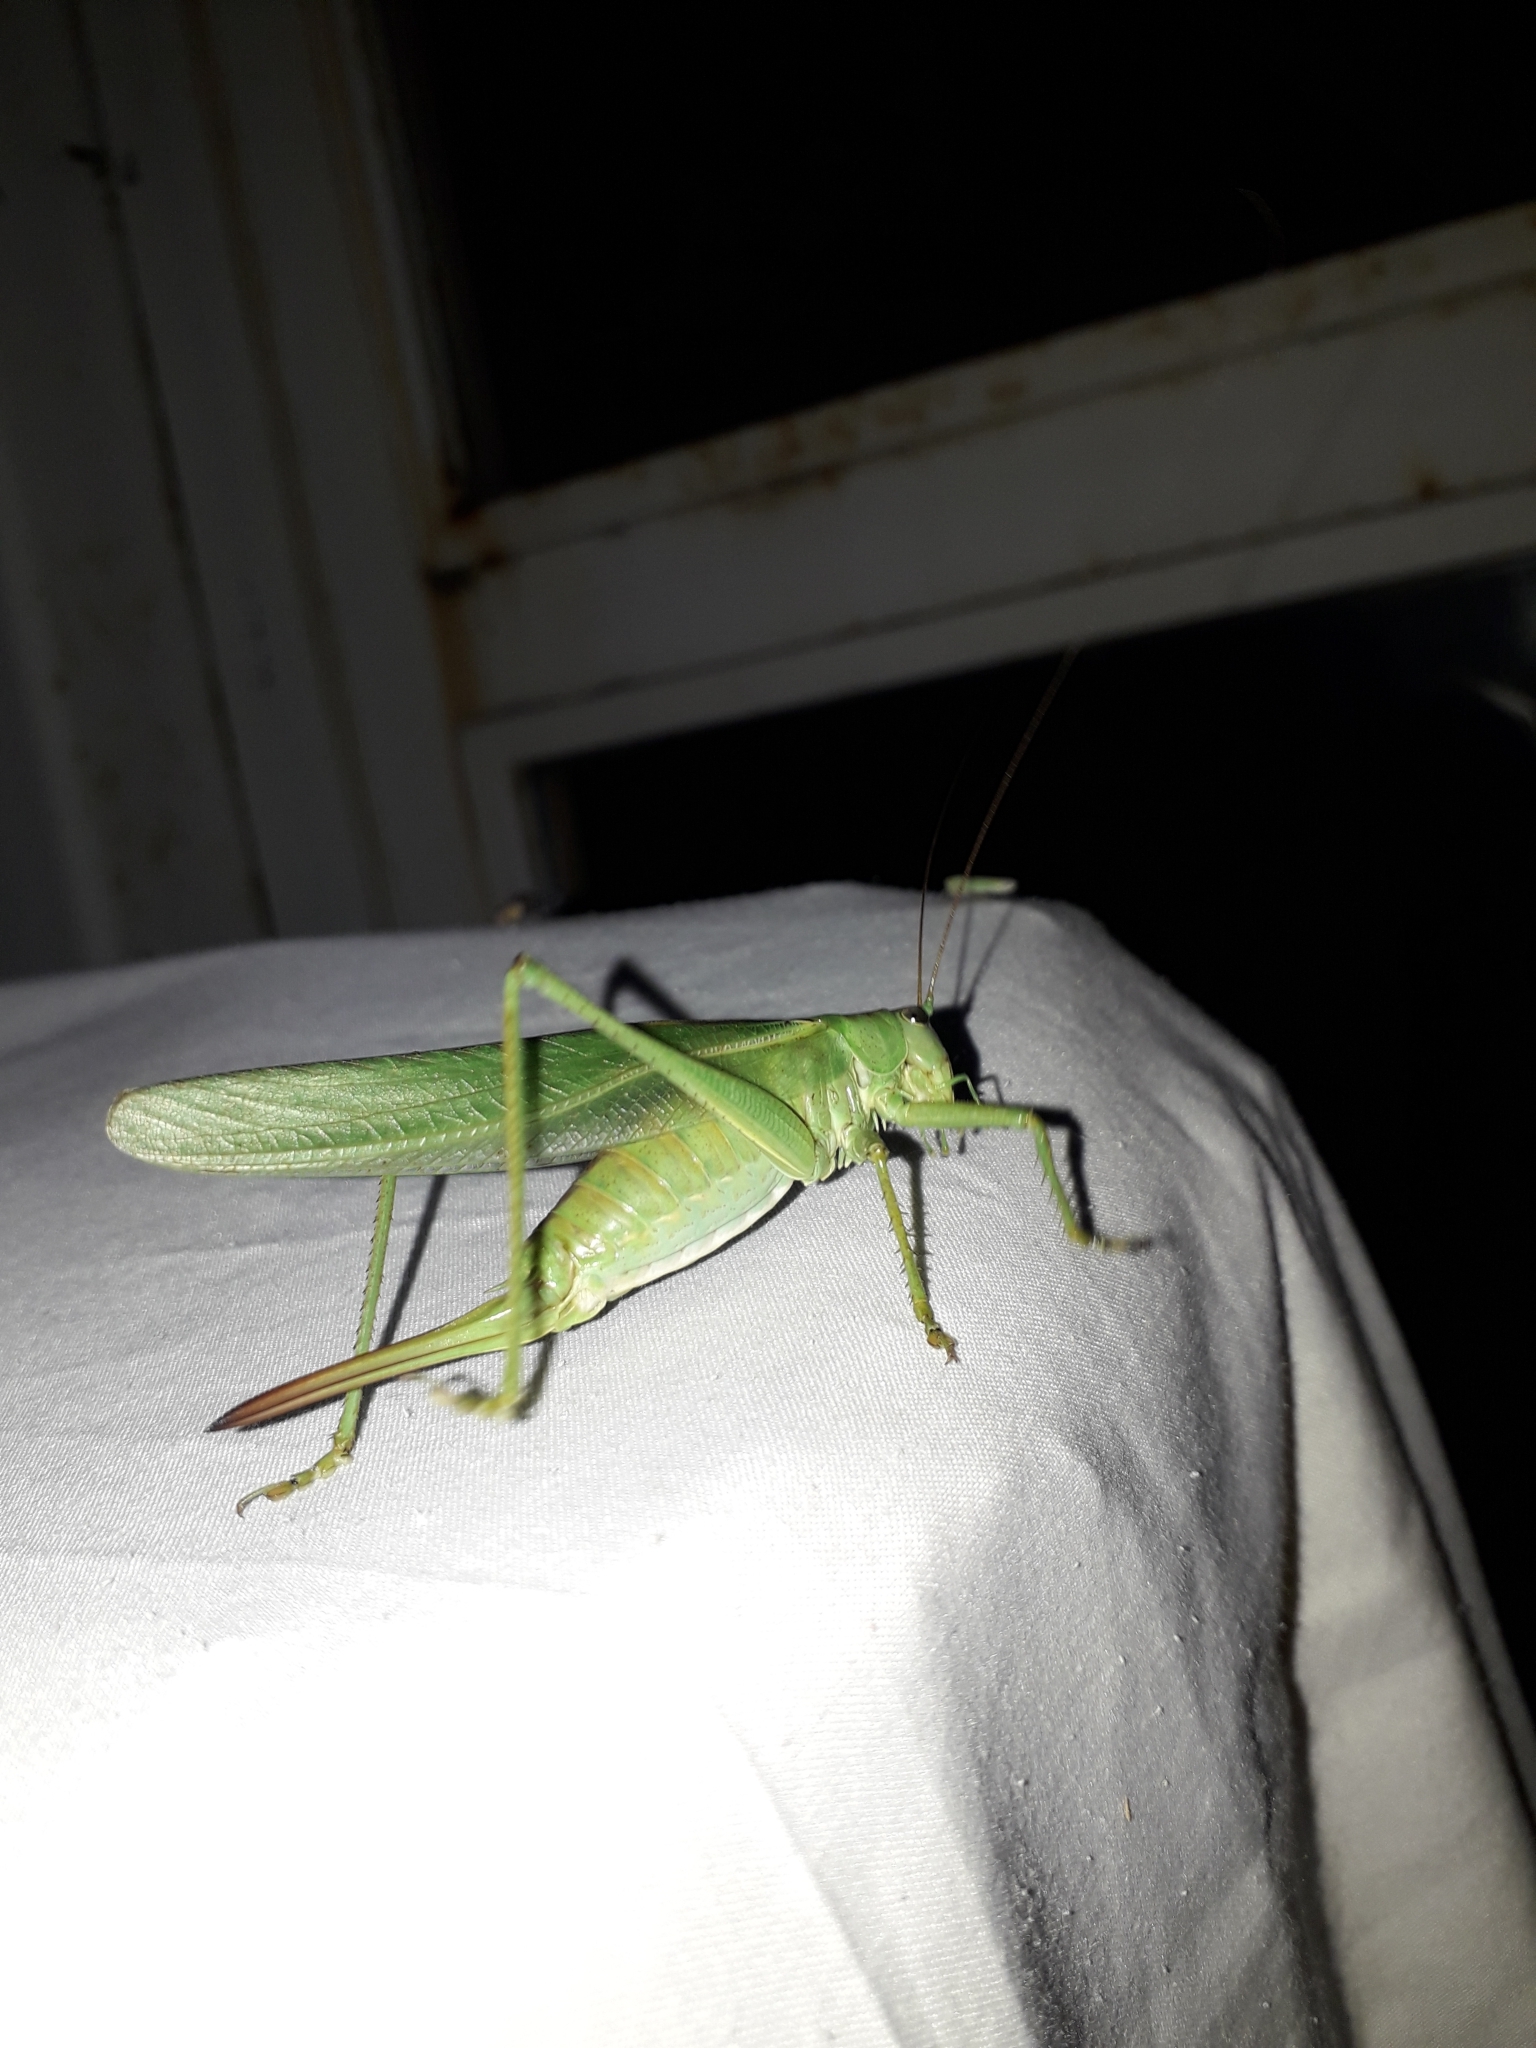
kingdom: Animalia
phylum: Arthropoda
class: Insecta
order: Orthoptera
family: Tettigoniidae
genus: Tettigonia
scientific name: Tettigonia viridissima
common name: Great green bush-cricket
